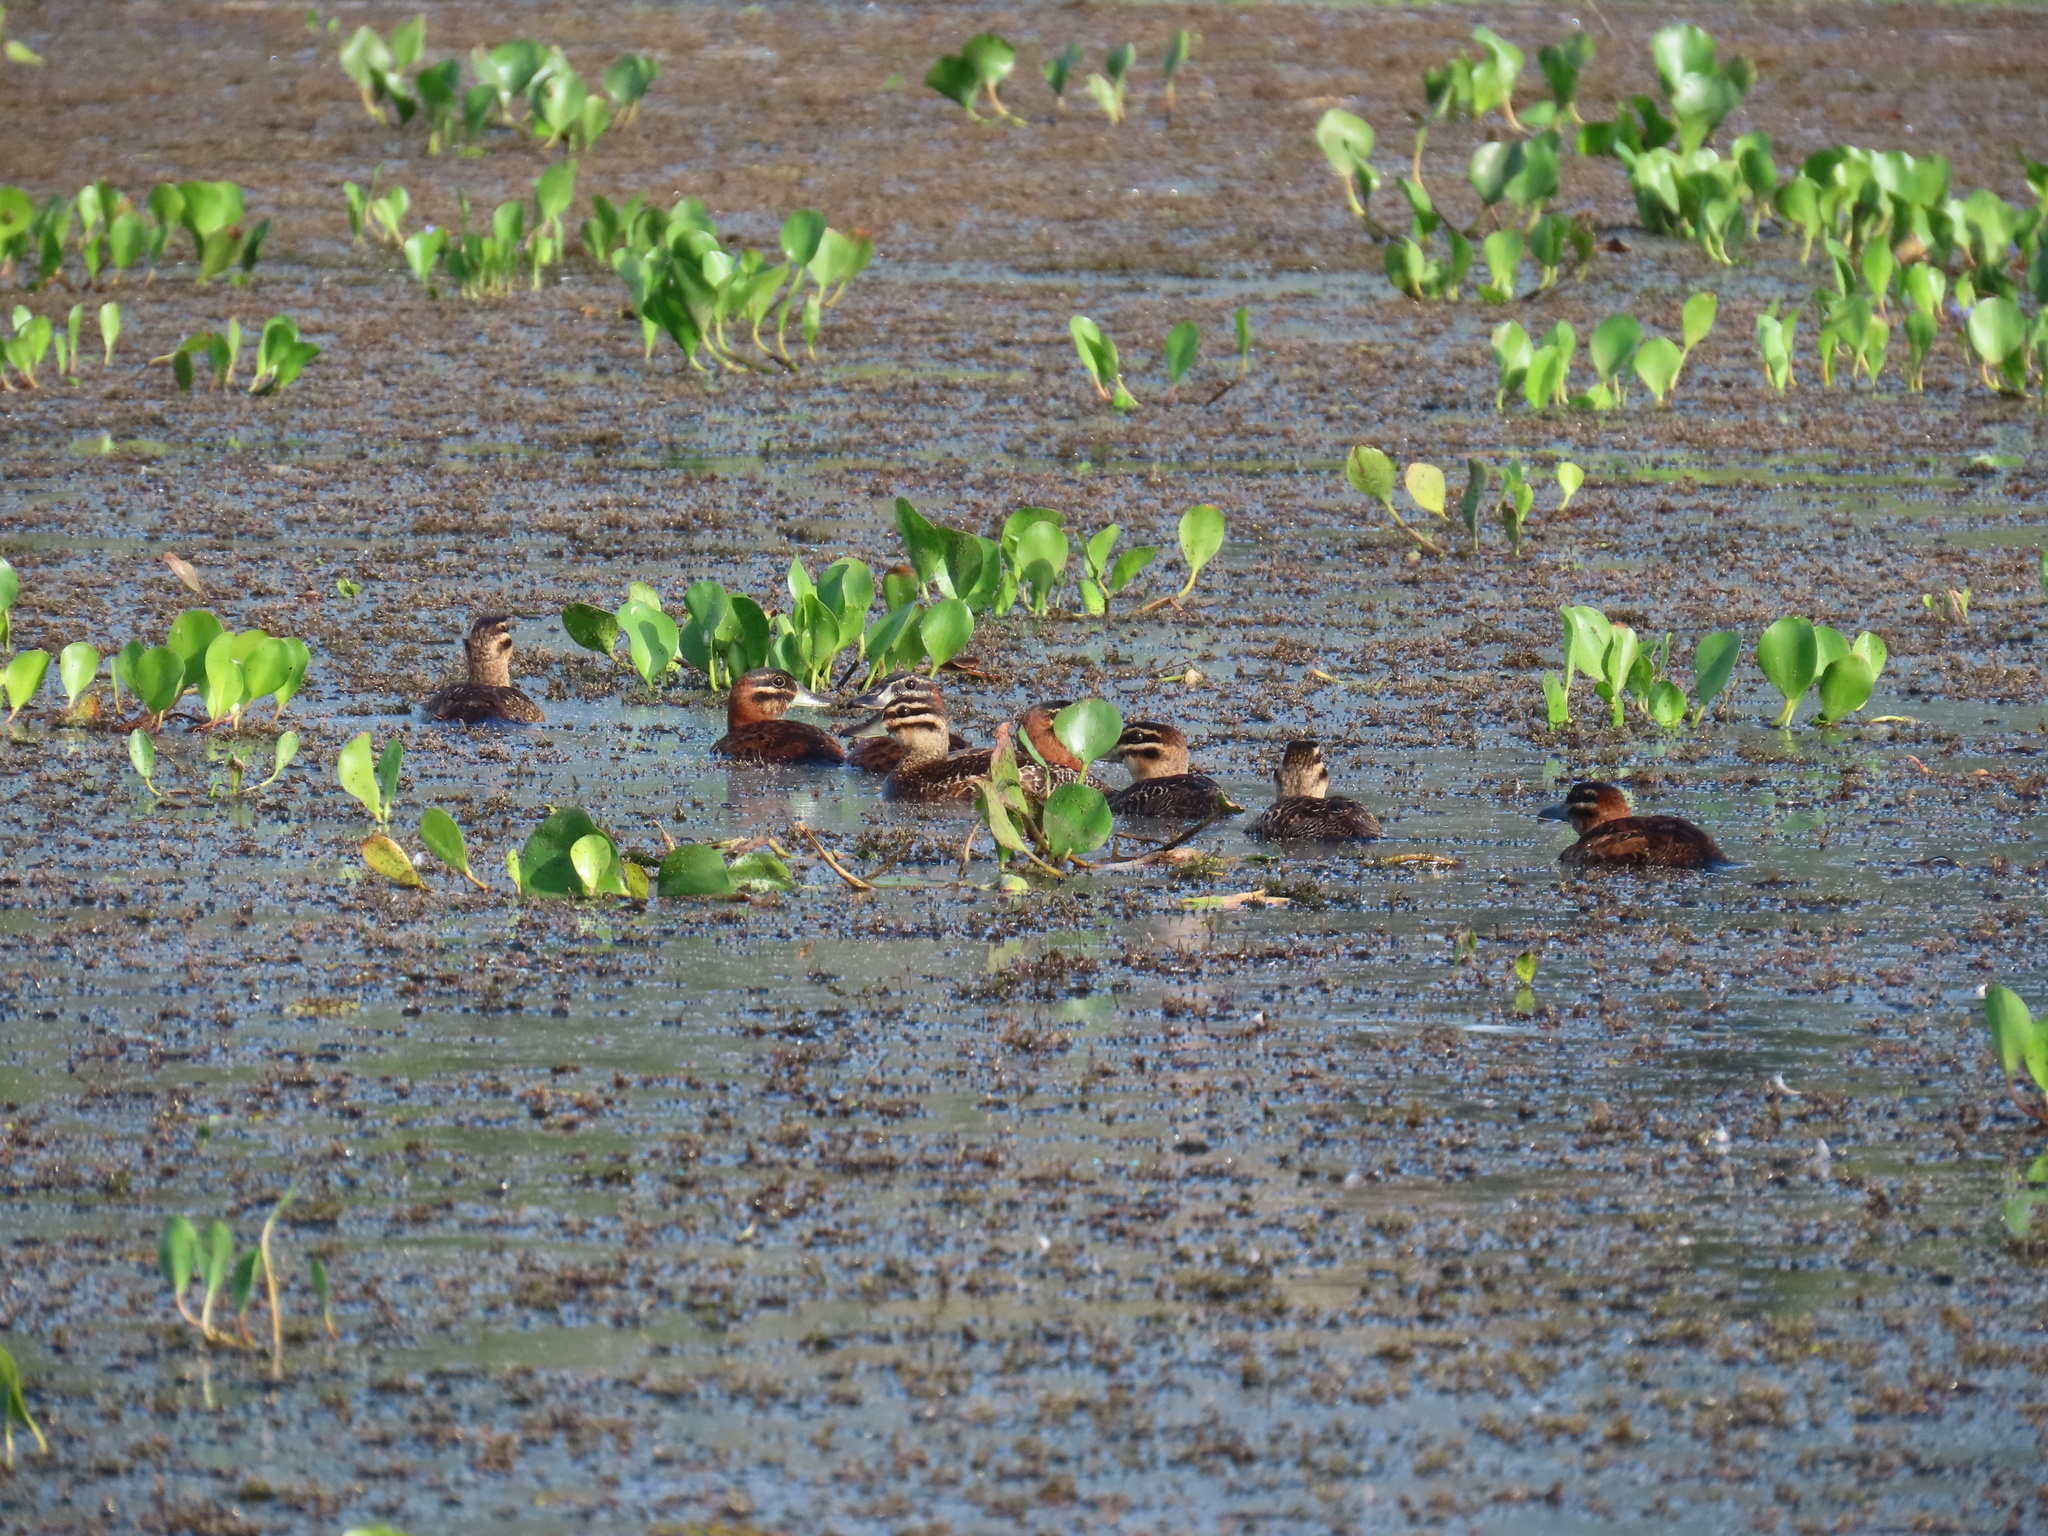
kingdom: Animalia
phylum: Chordata
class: Aves
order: Anseriformes
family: Anatidae
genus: Nomonyx
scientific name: Nomonyx dominicus
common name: Masked duck
